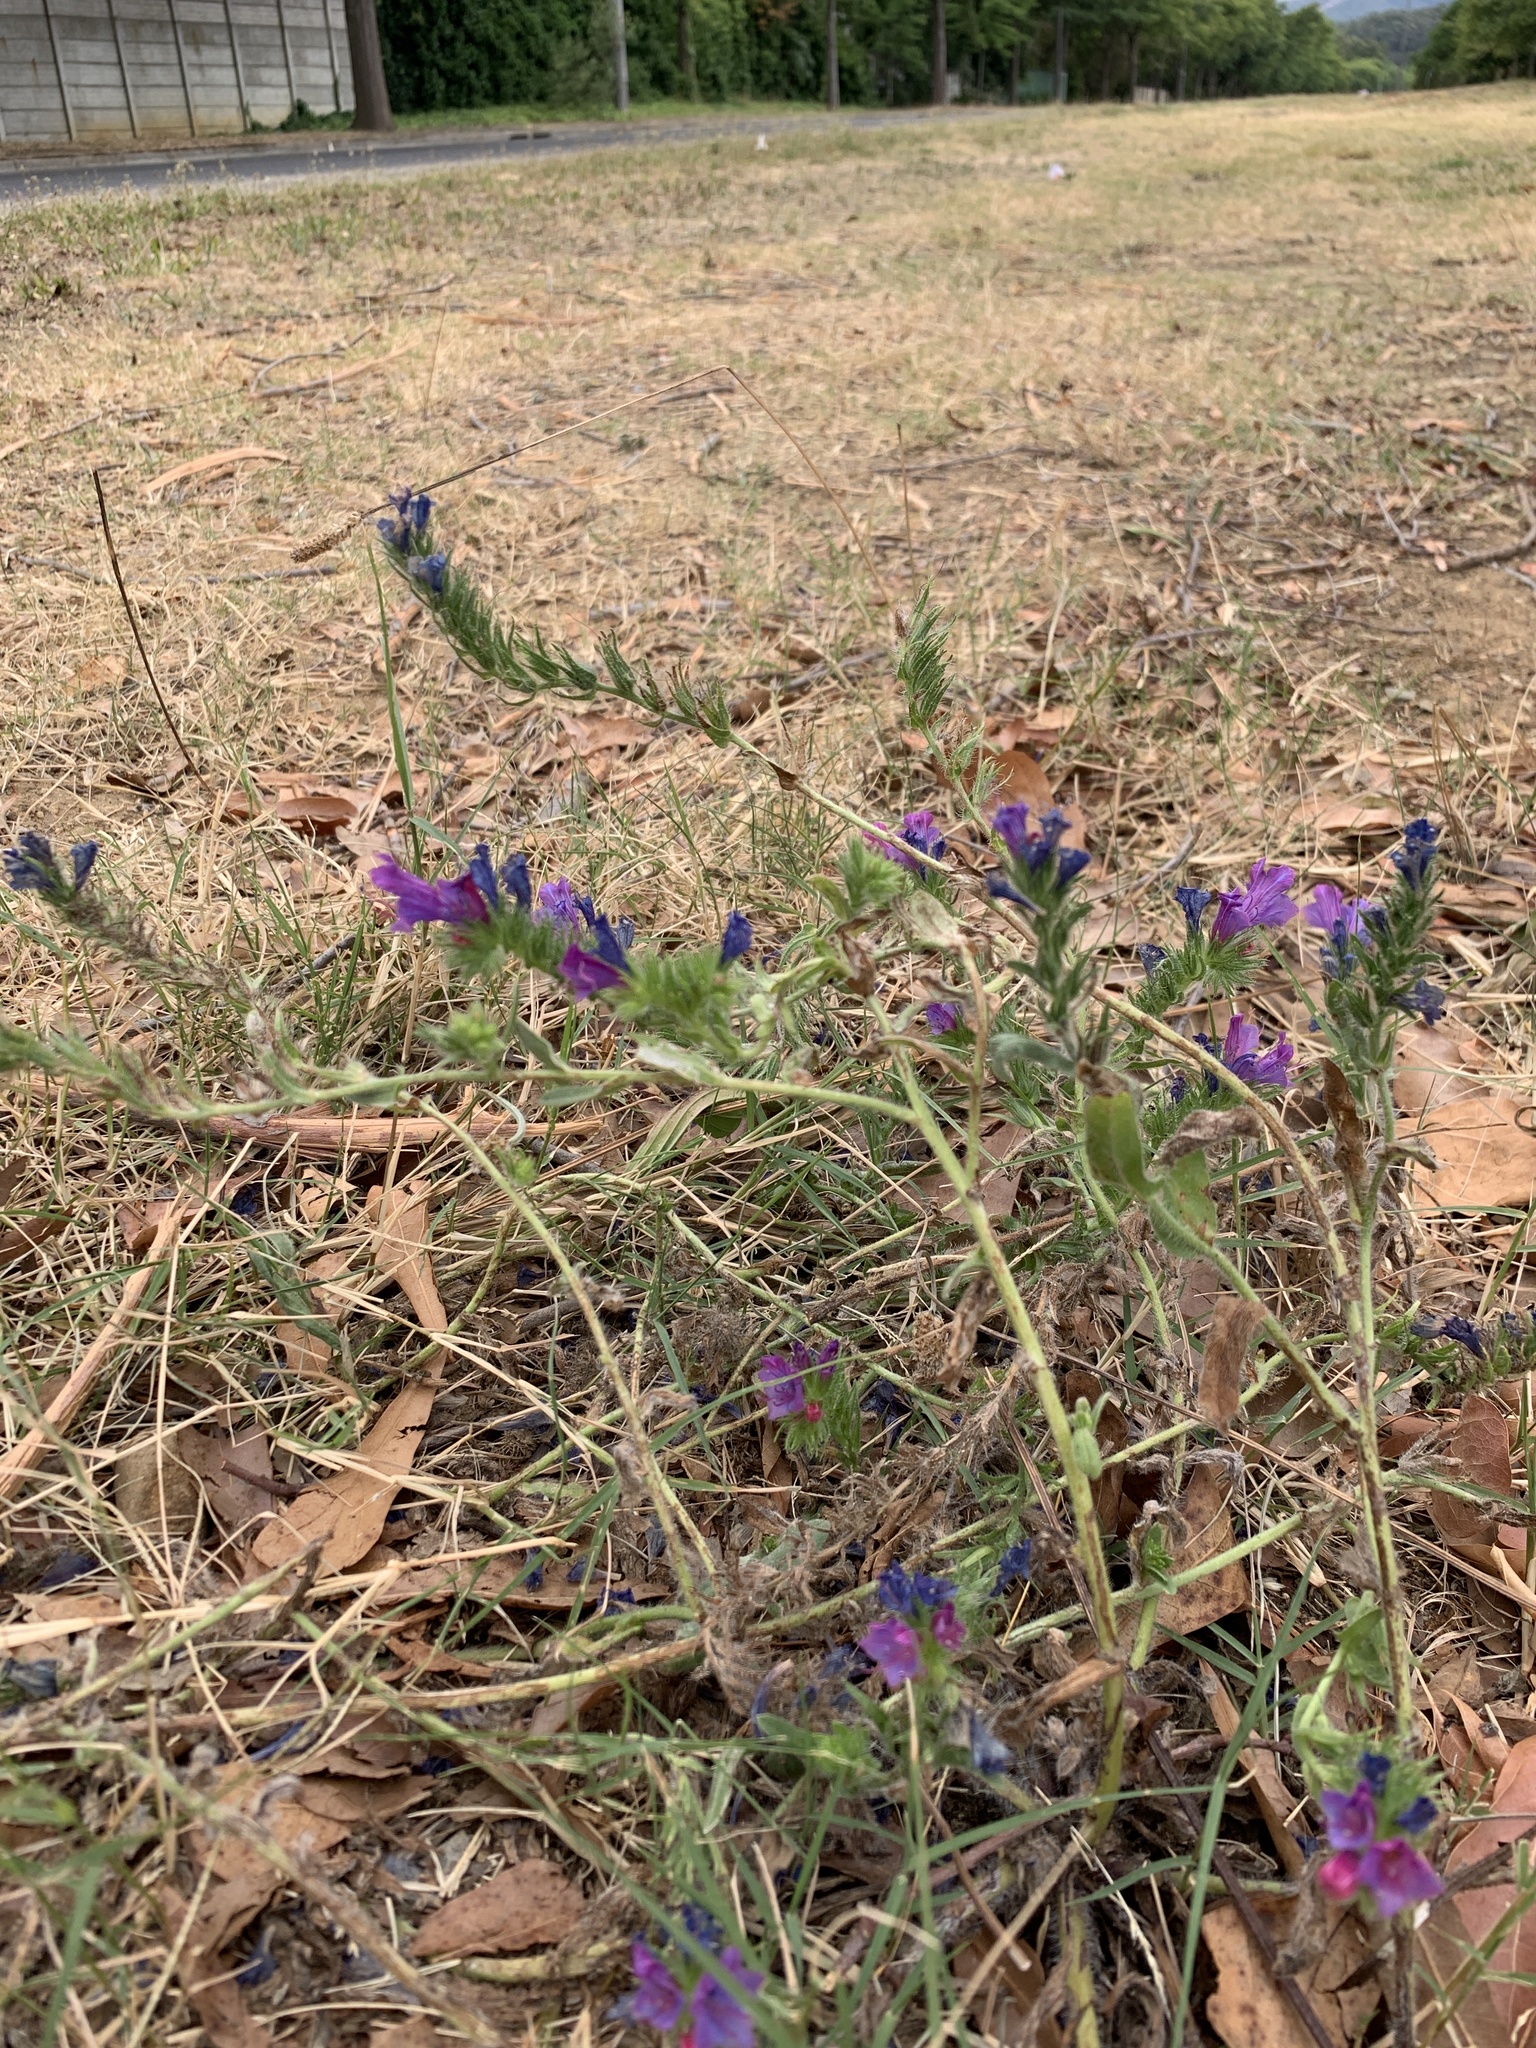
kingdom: Plantae
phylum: Tracheophyta
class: Magnoliopsida
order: Boraginales
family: Boraginaceae
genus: Echium
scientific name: Echium plantagineum
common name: Purple viper's-bugloss
